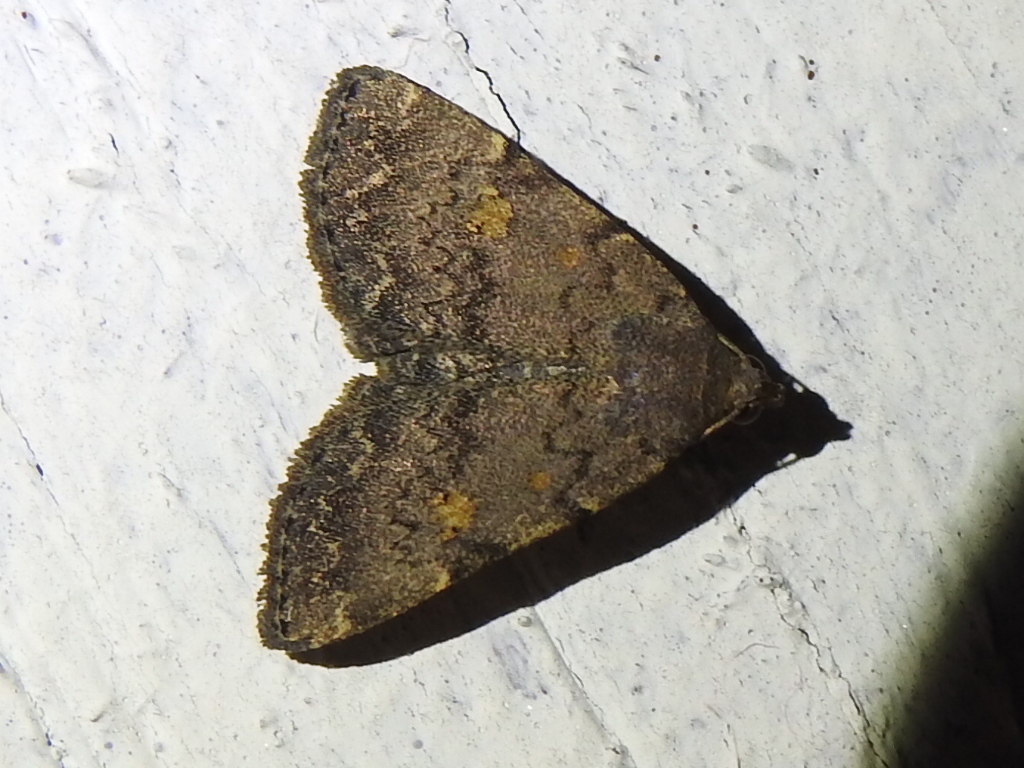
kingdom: Animalia
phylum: Arthropoda
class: Insecta
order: Lepidoptera
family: Erebidae
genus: Idia
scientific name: Idia aemula
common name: Common idia moth
